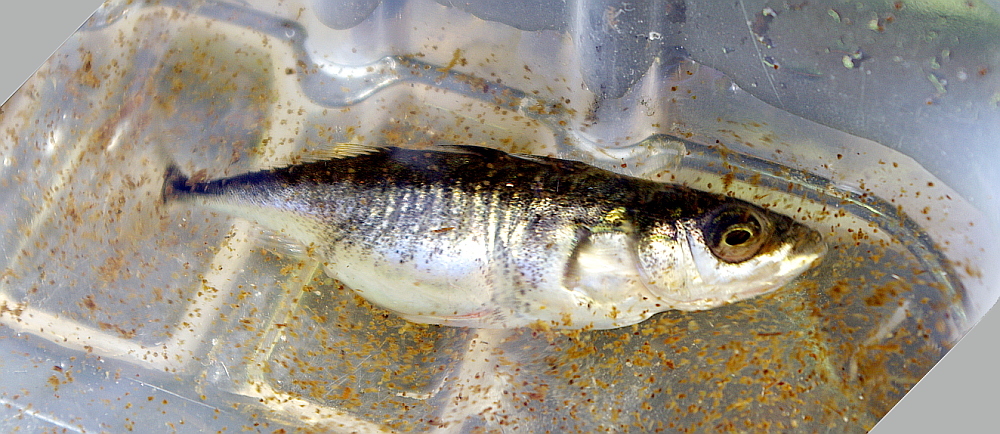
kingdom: Animalia
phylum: Chordata
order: Gasterosteiformes
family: Gasterosteidae
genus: Gasterosteus
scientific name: Gasterosteus aculeatus
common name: Three-spined stickleback
